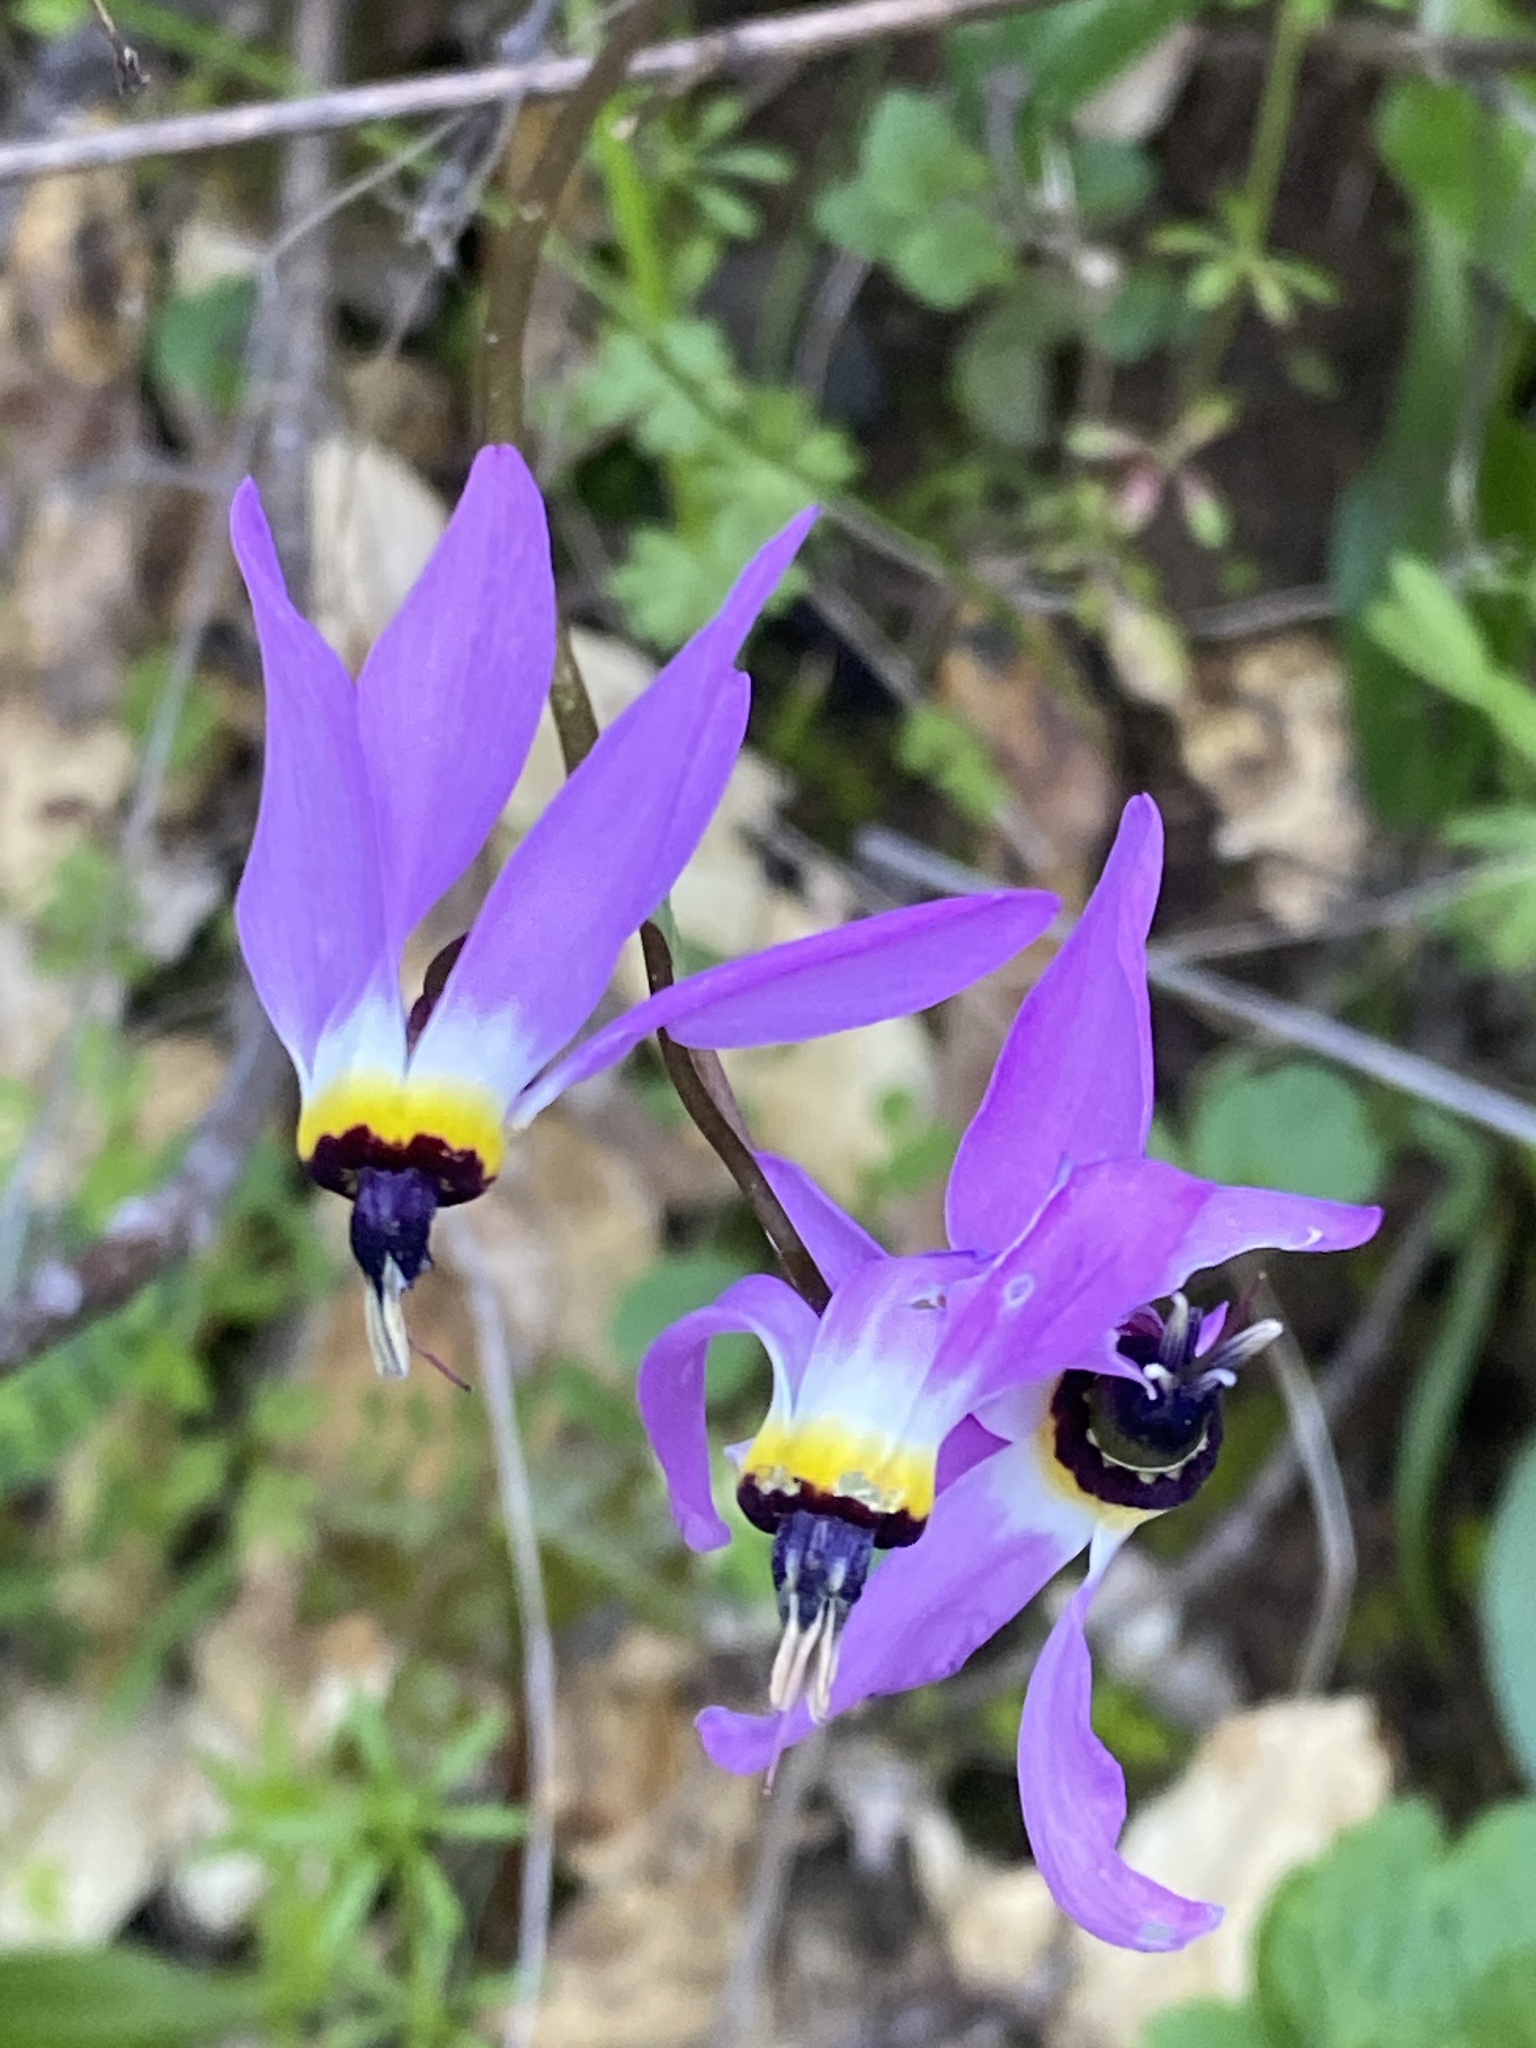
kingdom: Plantae
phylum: Tracheophyta
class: Magnoliopsida
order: Ericales
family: Primulaceae
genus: Dodecatheon
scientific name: Dodecatheon clevelandii
